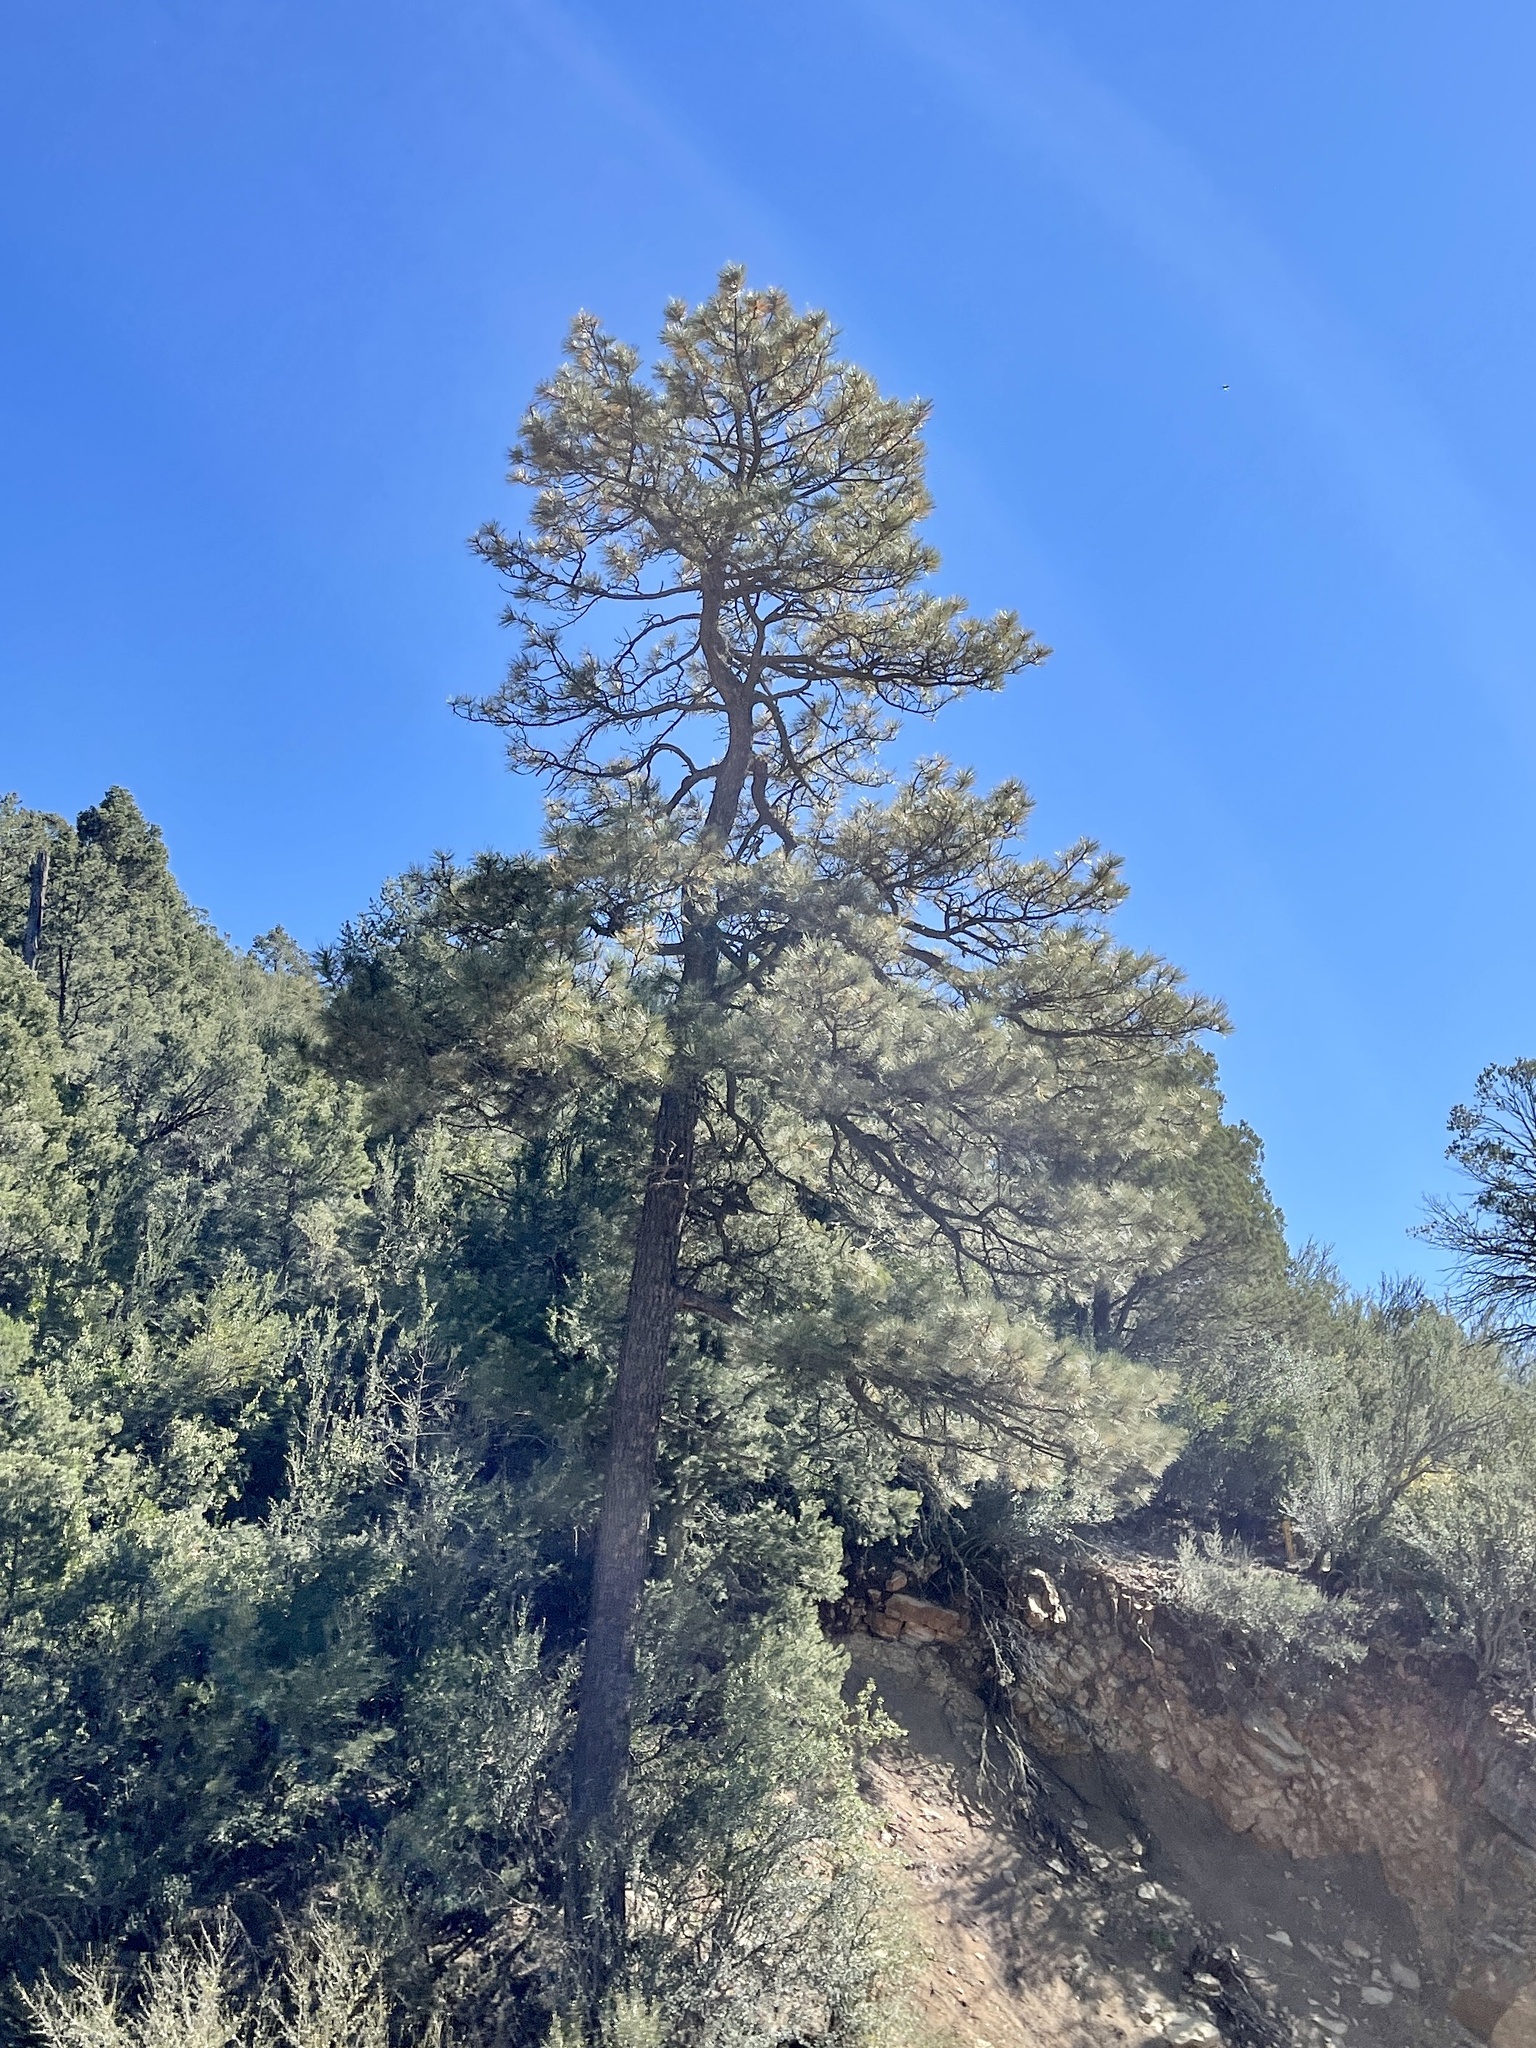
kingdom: Plantae
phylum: Tracheophyta
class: Pinopsida
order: Pinales
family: Pinaceae
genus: Pinus
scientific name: Pinus ponderosa
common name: Western yellow-pine
